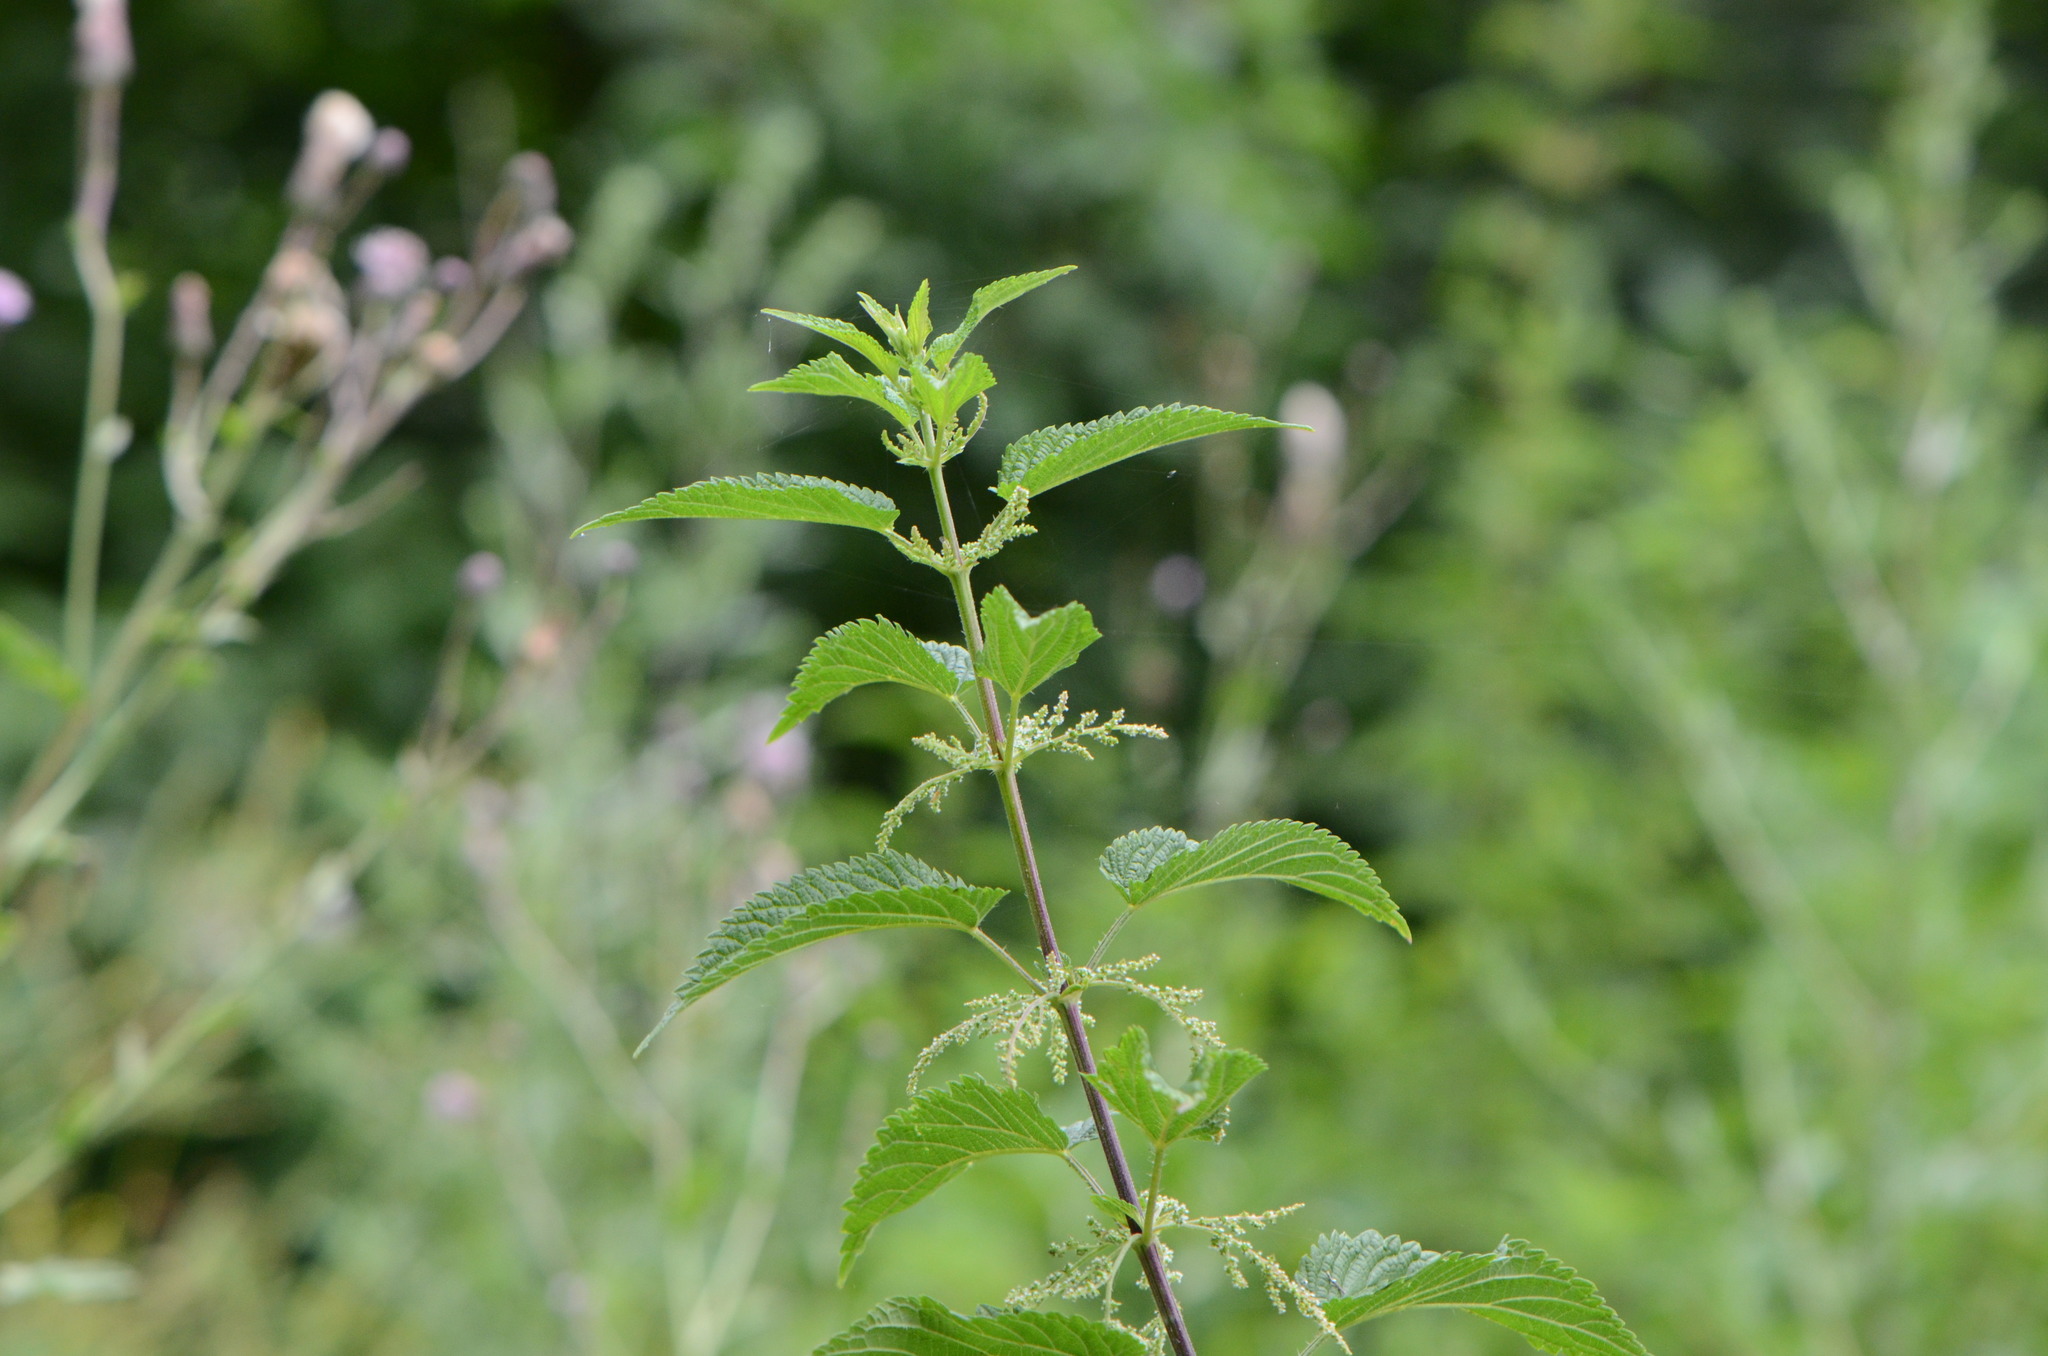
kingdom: Plantae
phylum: Tracheophyta
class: Magnoliopsida
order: Rosales
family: Urticaceae
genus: Urtica
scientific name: Urtica dioica
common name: Common nettle
